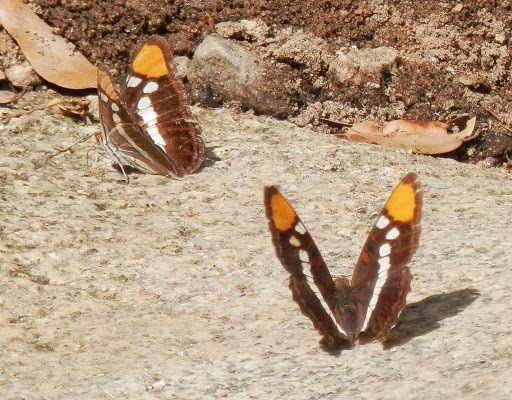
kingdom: Animalia
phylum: Arthropoda
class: Insecta
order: Lepidoptera
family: Nymphalidae
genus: Limenitis
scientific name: Limenitis bredowii
